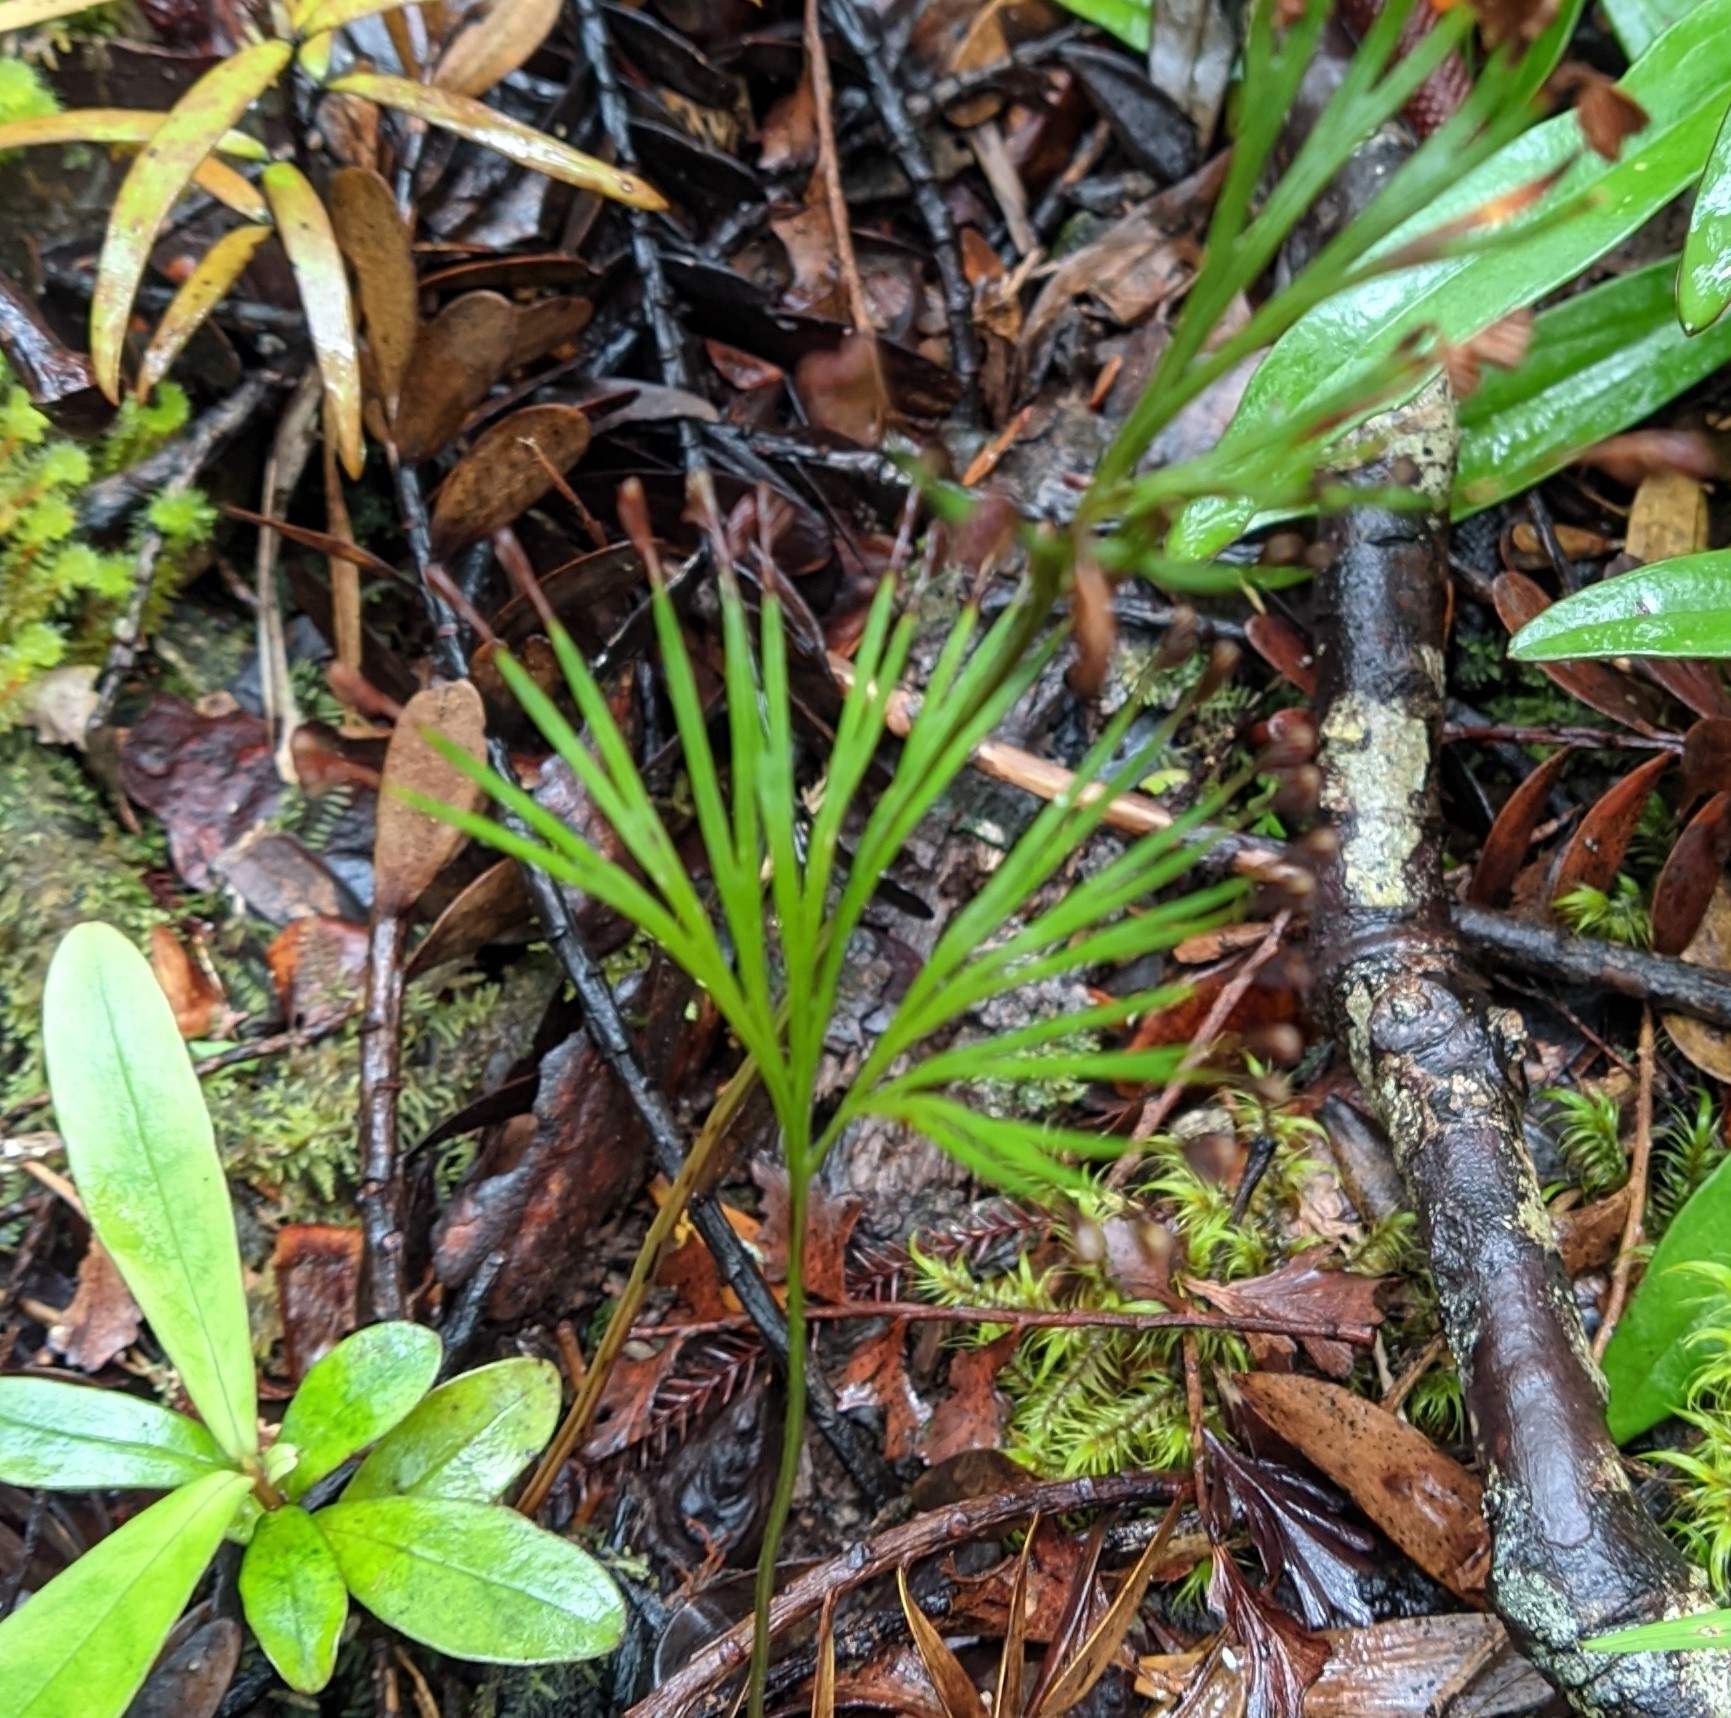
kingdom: Plantae
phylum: Tracheophyta
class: Polypodiopsida
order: Schizaeales
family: Schizaeaceae
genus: Schizaea
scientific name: Schizaea dichotoma
